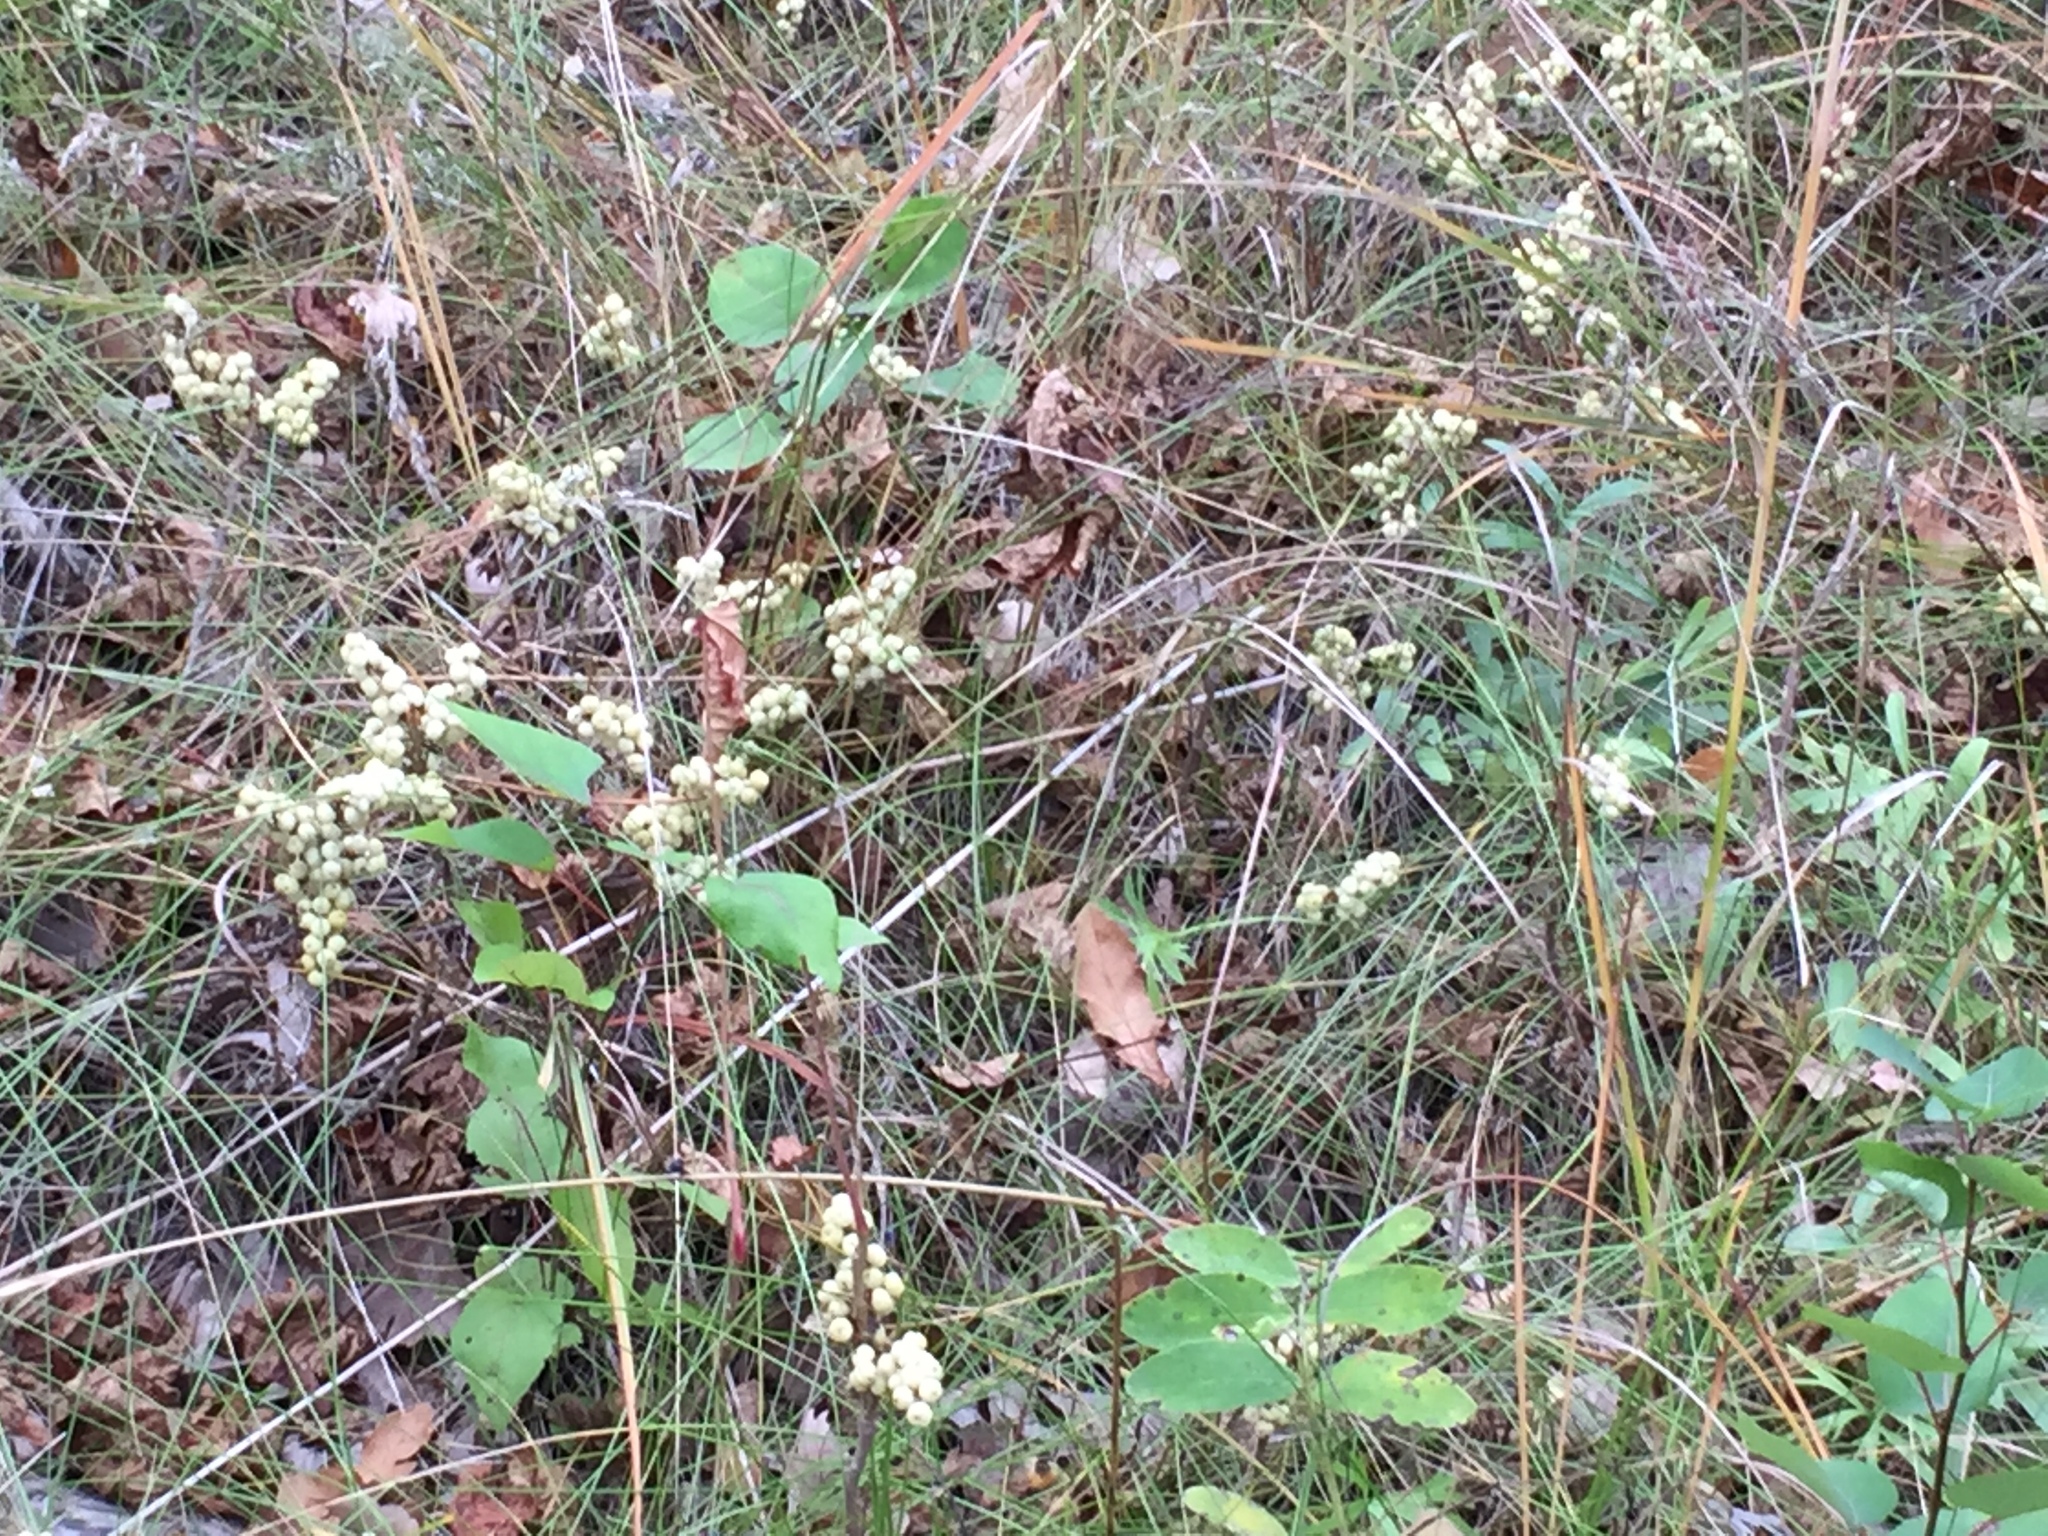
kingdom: Plantae
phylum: Tracheophyta
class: Magnoliopsida
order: Sapindales
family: Anacardiaceae
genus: Toxicodendron
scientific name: Toxicodendron rydbergii
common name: Rydberg's poison-ivy
